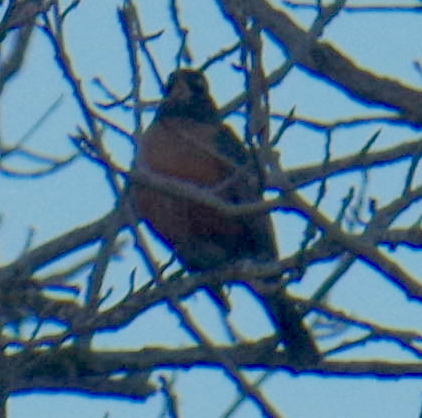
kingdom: Animalia
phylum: Chordata
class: Aves
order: Passeriformes
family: Turdidae
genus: Turdus
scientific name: Turdus migratorius
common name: American robin
